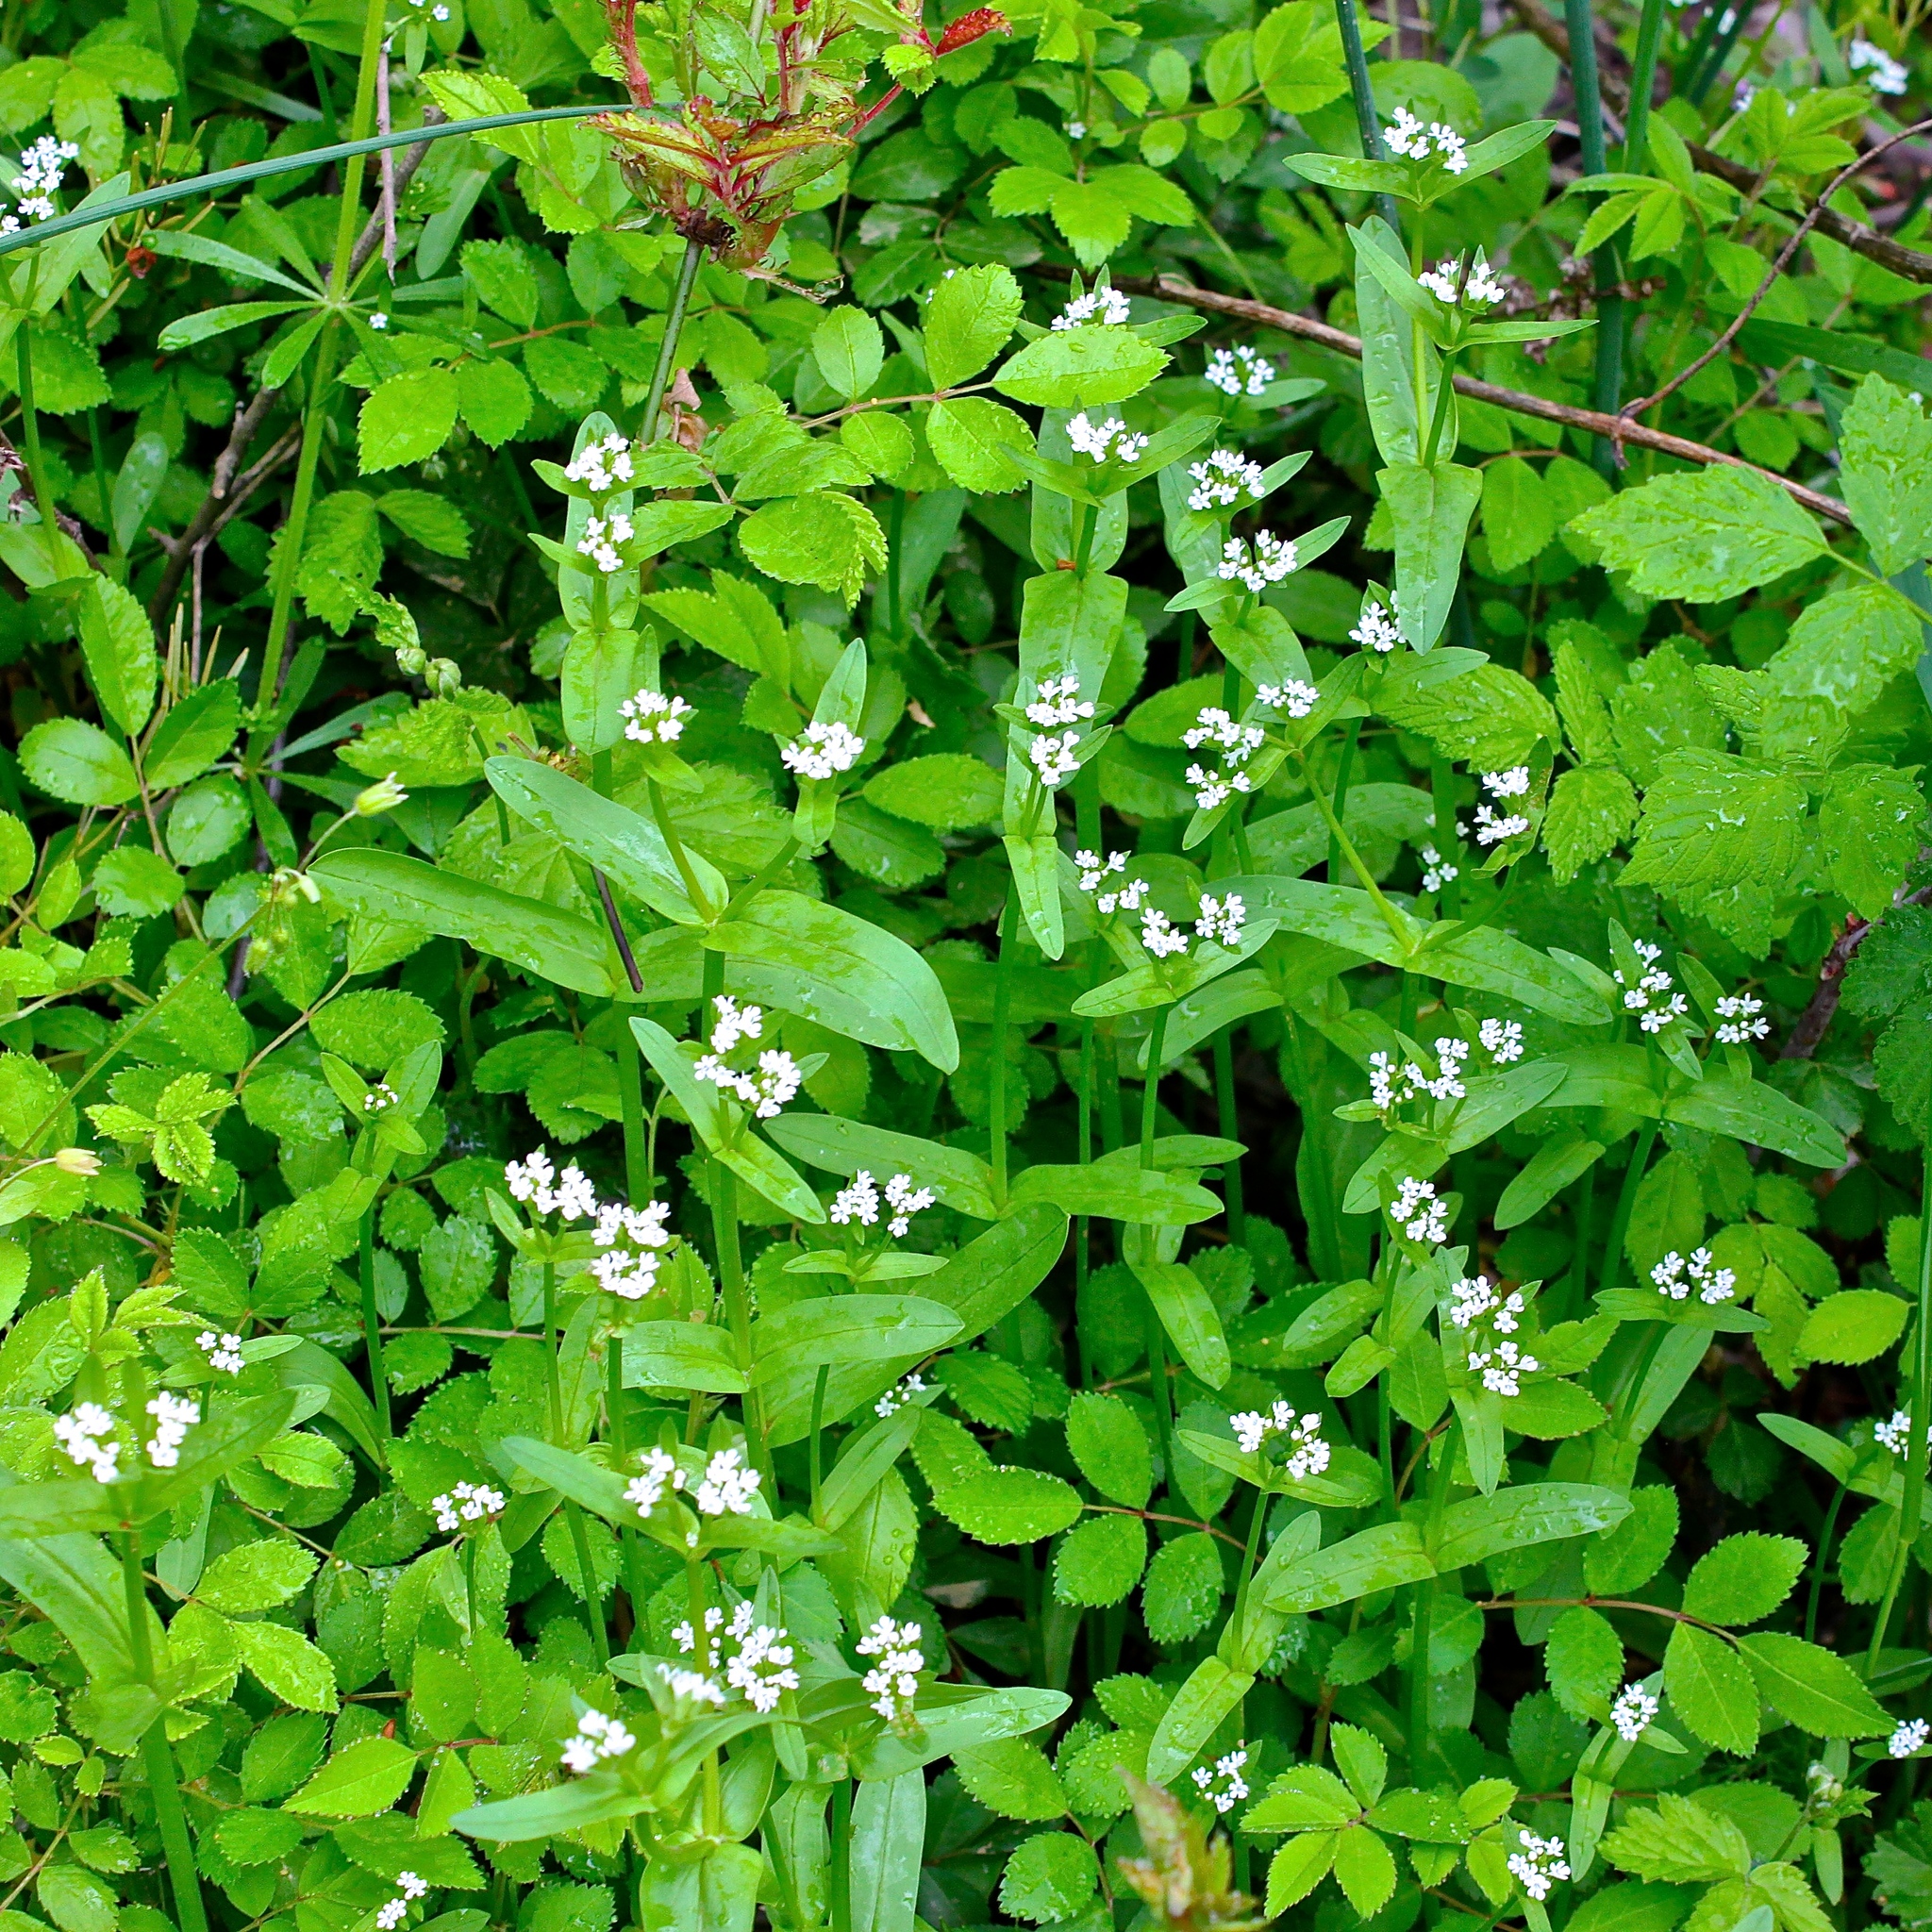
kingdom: Plantae
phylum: Tracheophyta
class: Magnoliopsida
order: Dipsacales
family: Caprifoliaceae
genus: Valerianella
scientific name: Valerianella locusta
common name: Common cornsalad
